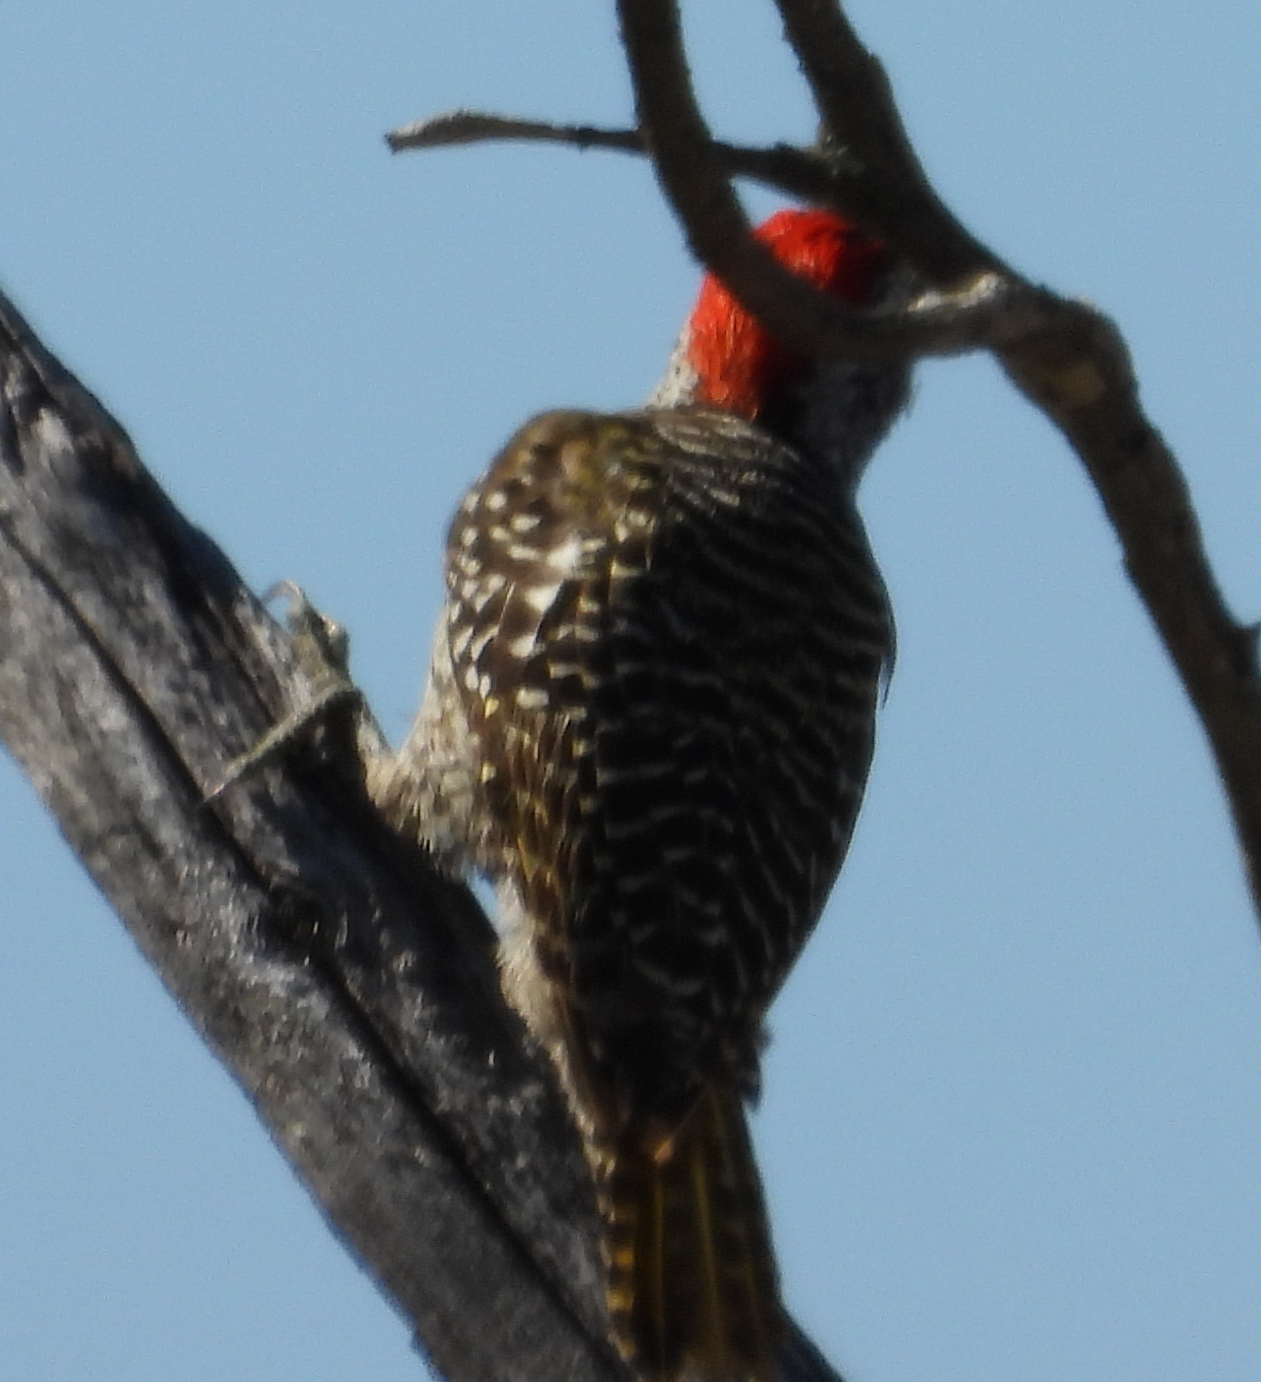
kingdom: Animalia
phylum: Chordata
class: Aves
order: Piciformes
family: Picidae
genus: Dendropicos
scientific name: Dendropicos fuscescens
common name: Cardinal woodpecker
